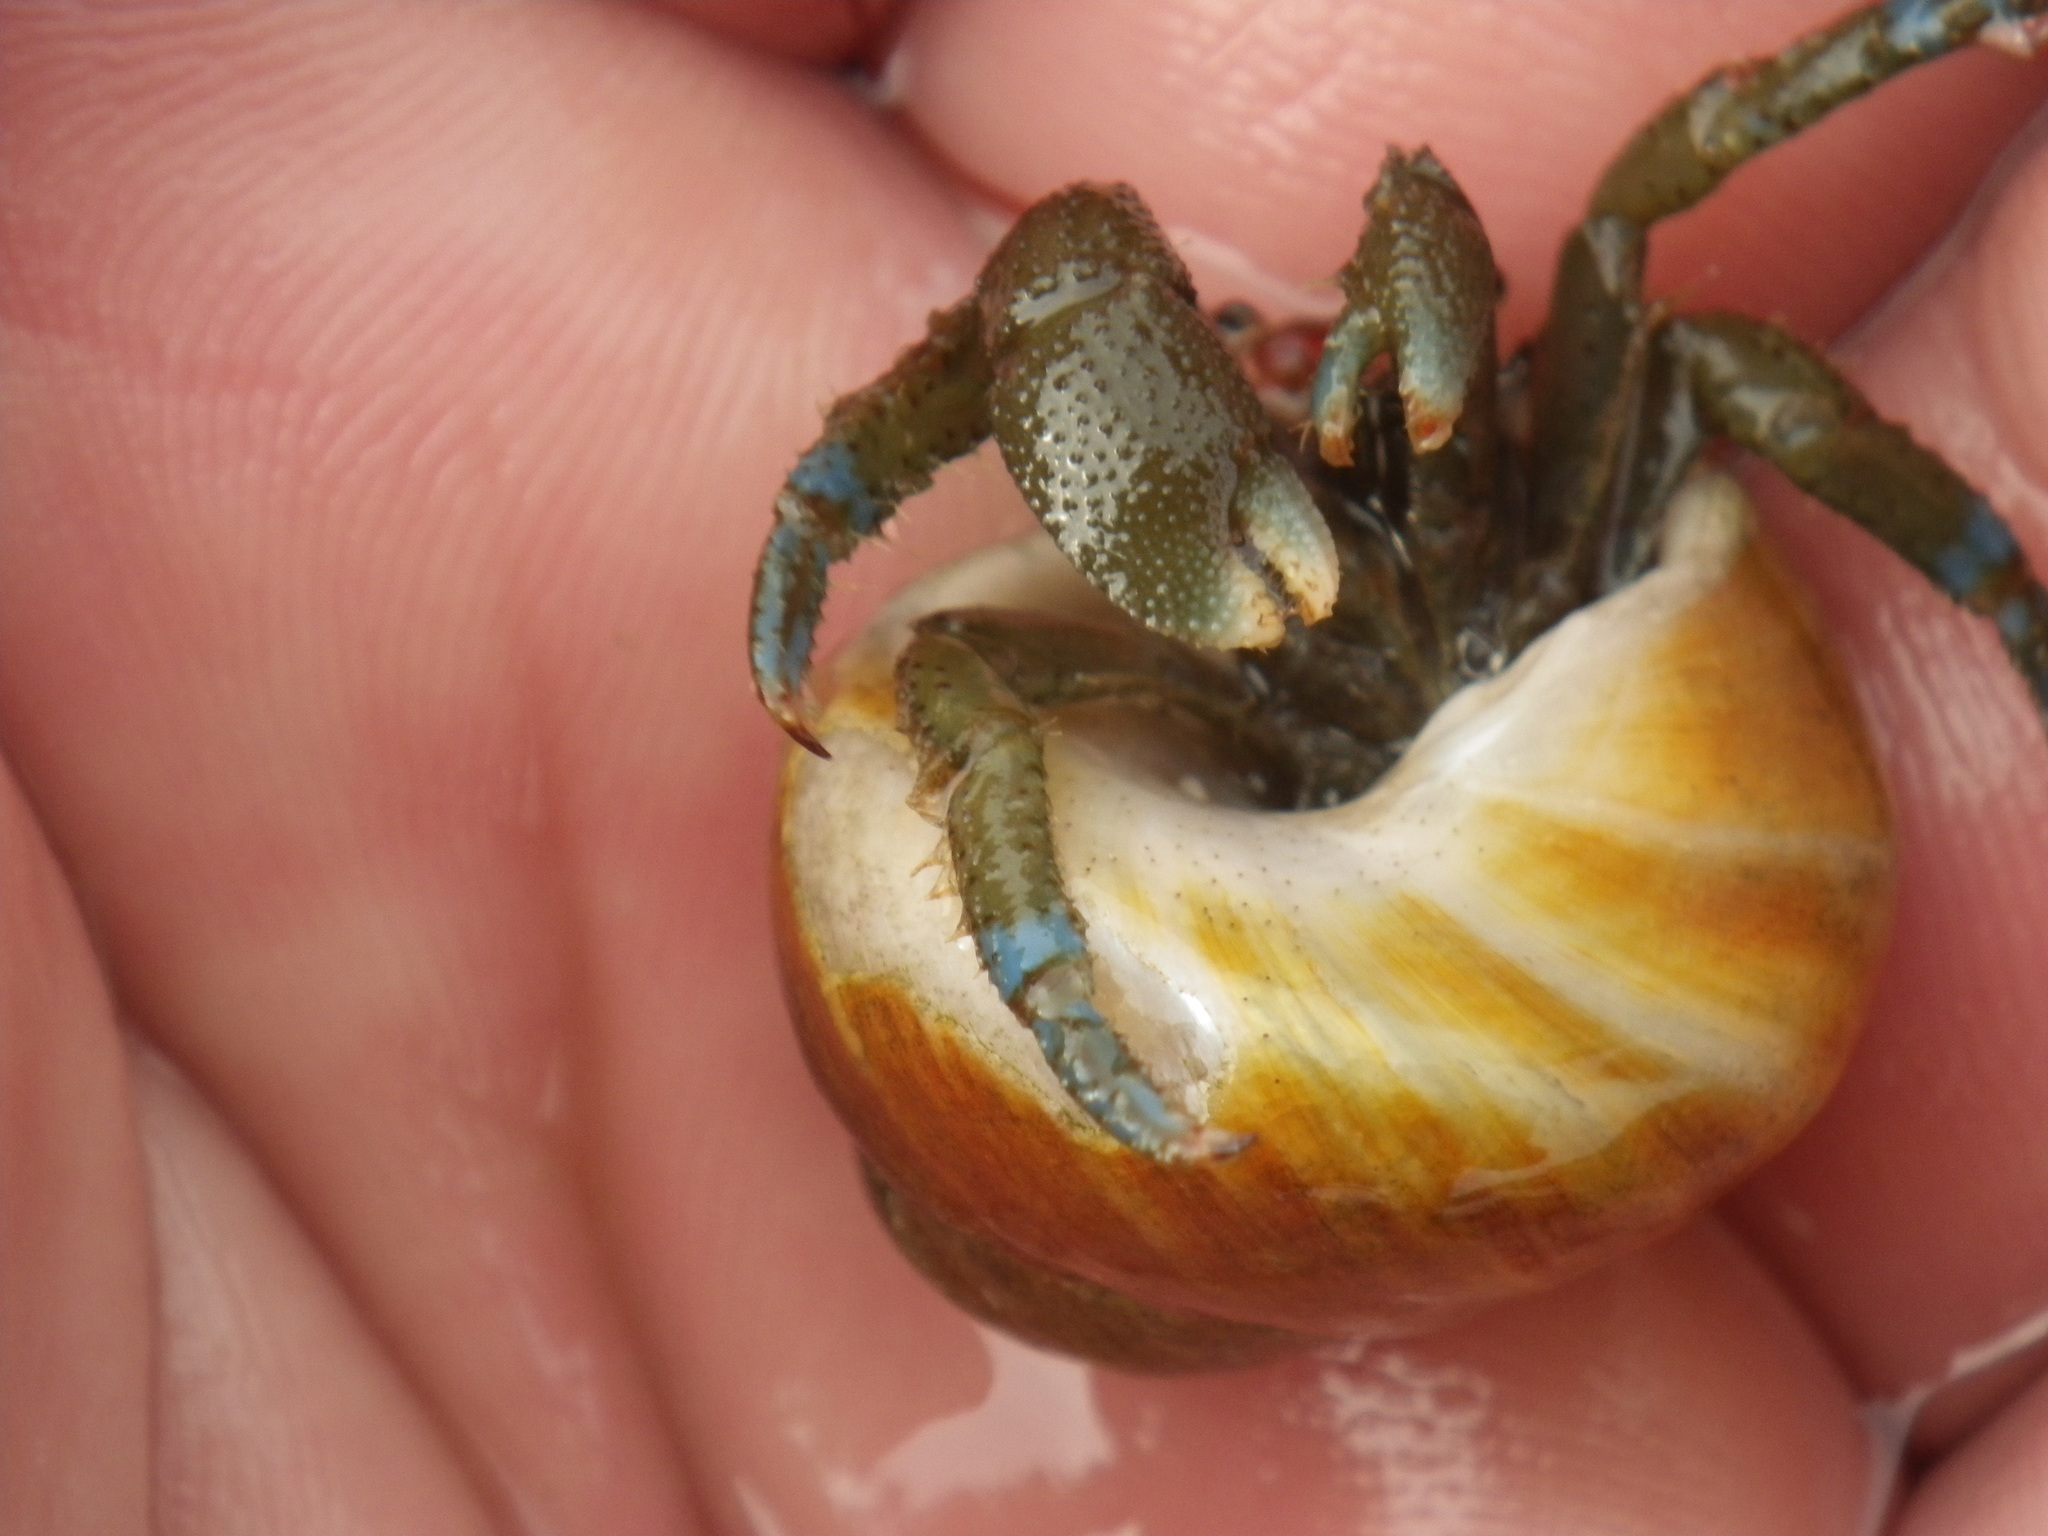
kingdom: Animalia
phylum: Arthropoda
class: Malacostraca
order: Decapoda
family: Paguridae
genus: Pagurus
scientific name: Pagurus samuelis
